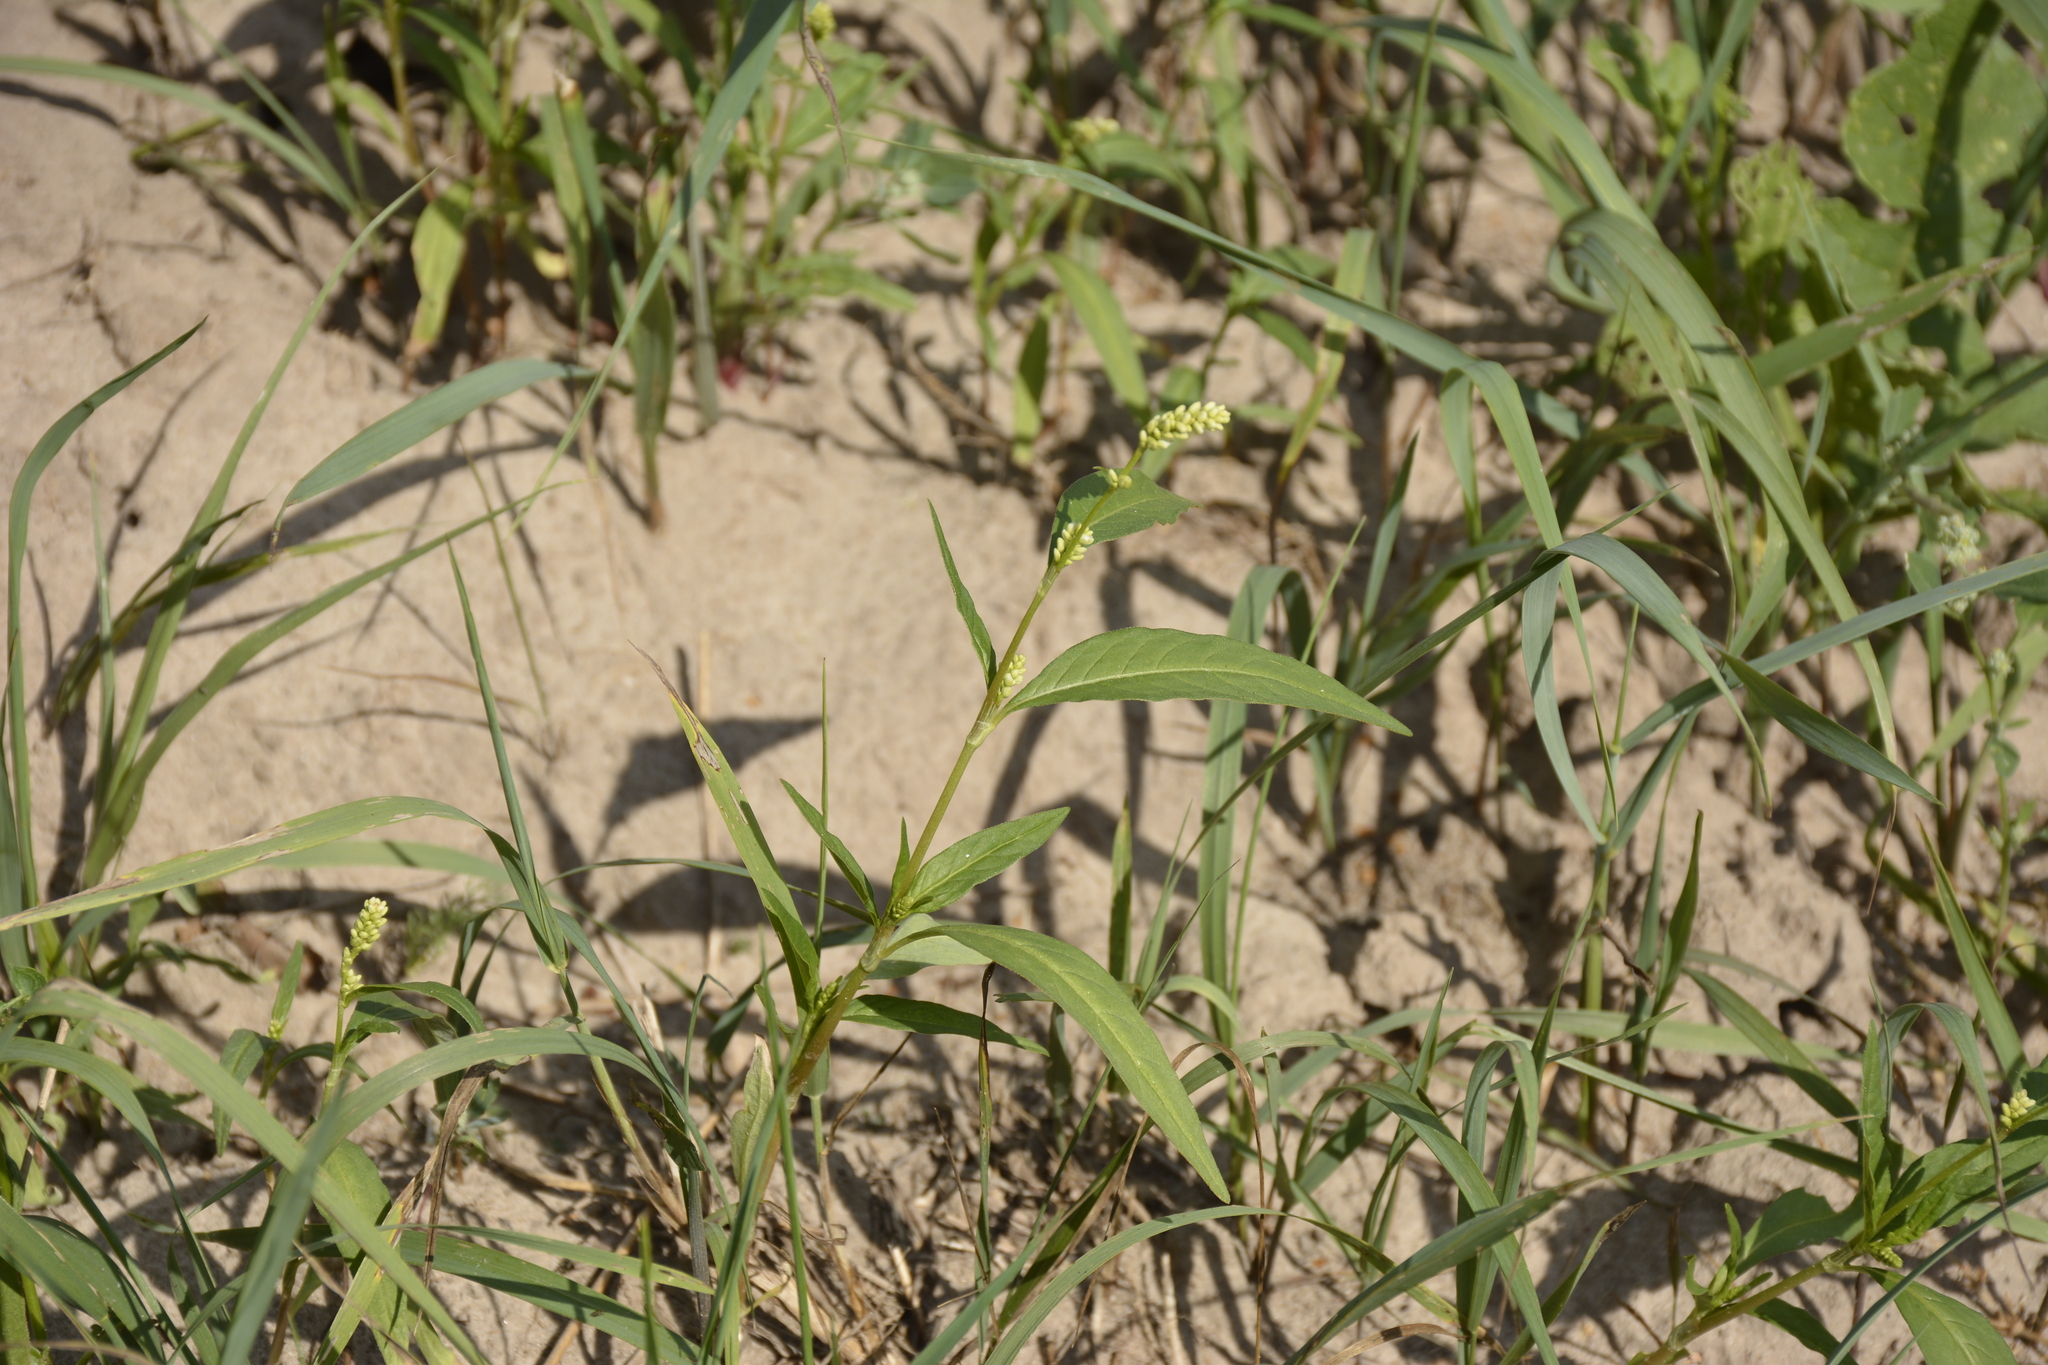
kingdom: Plantae
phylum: Tracheophyta
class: Magnoliopsida
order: Caryophyllales
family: Polygonaceae
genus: Persicaria
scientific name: Persicaria lapathifolia
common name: Curlytop knotweed
